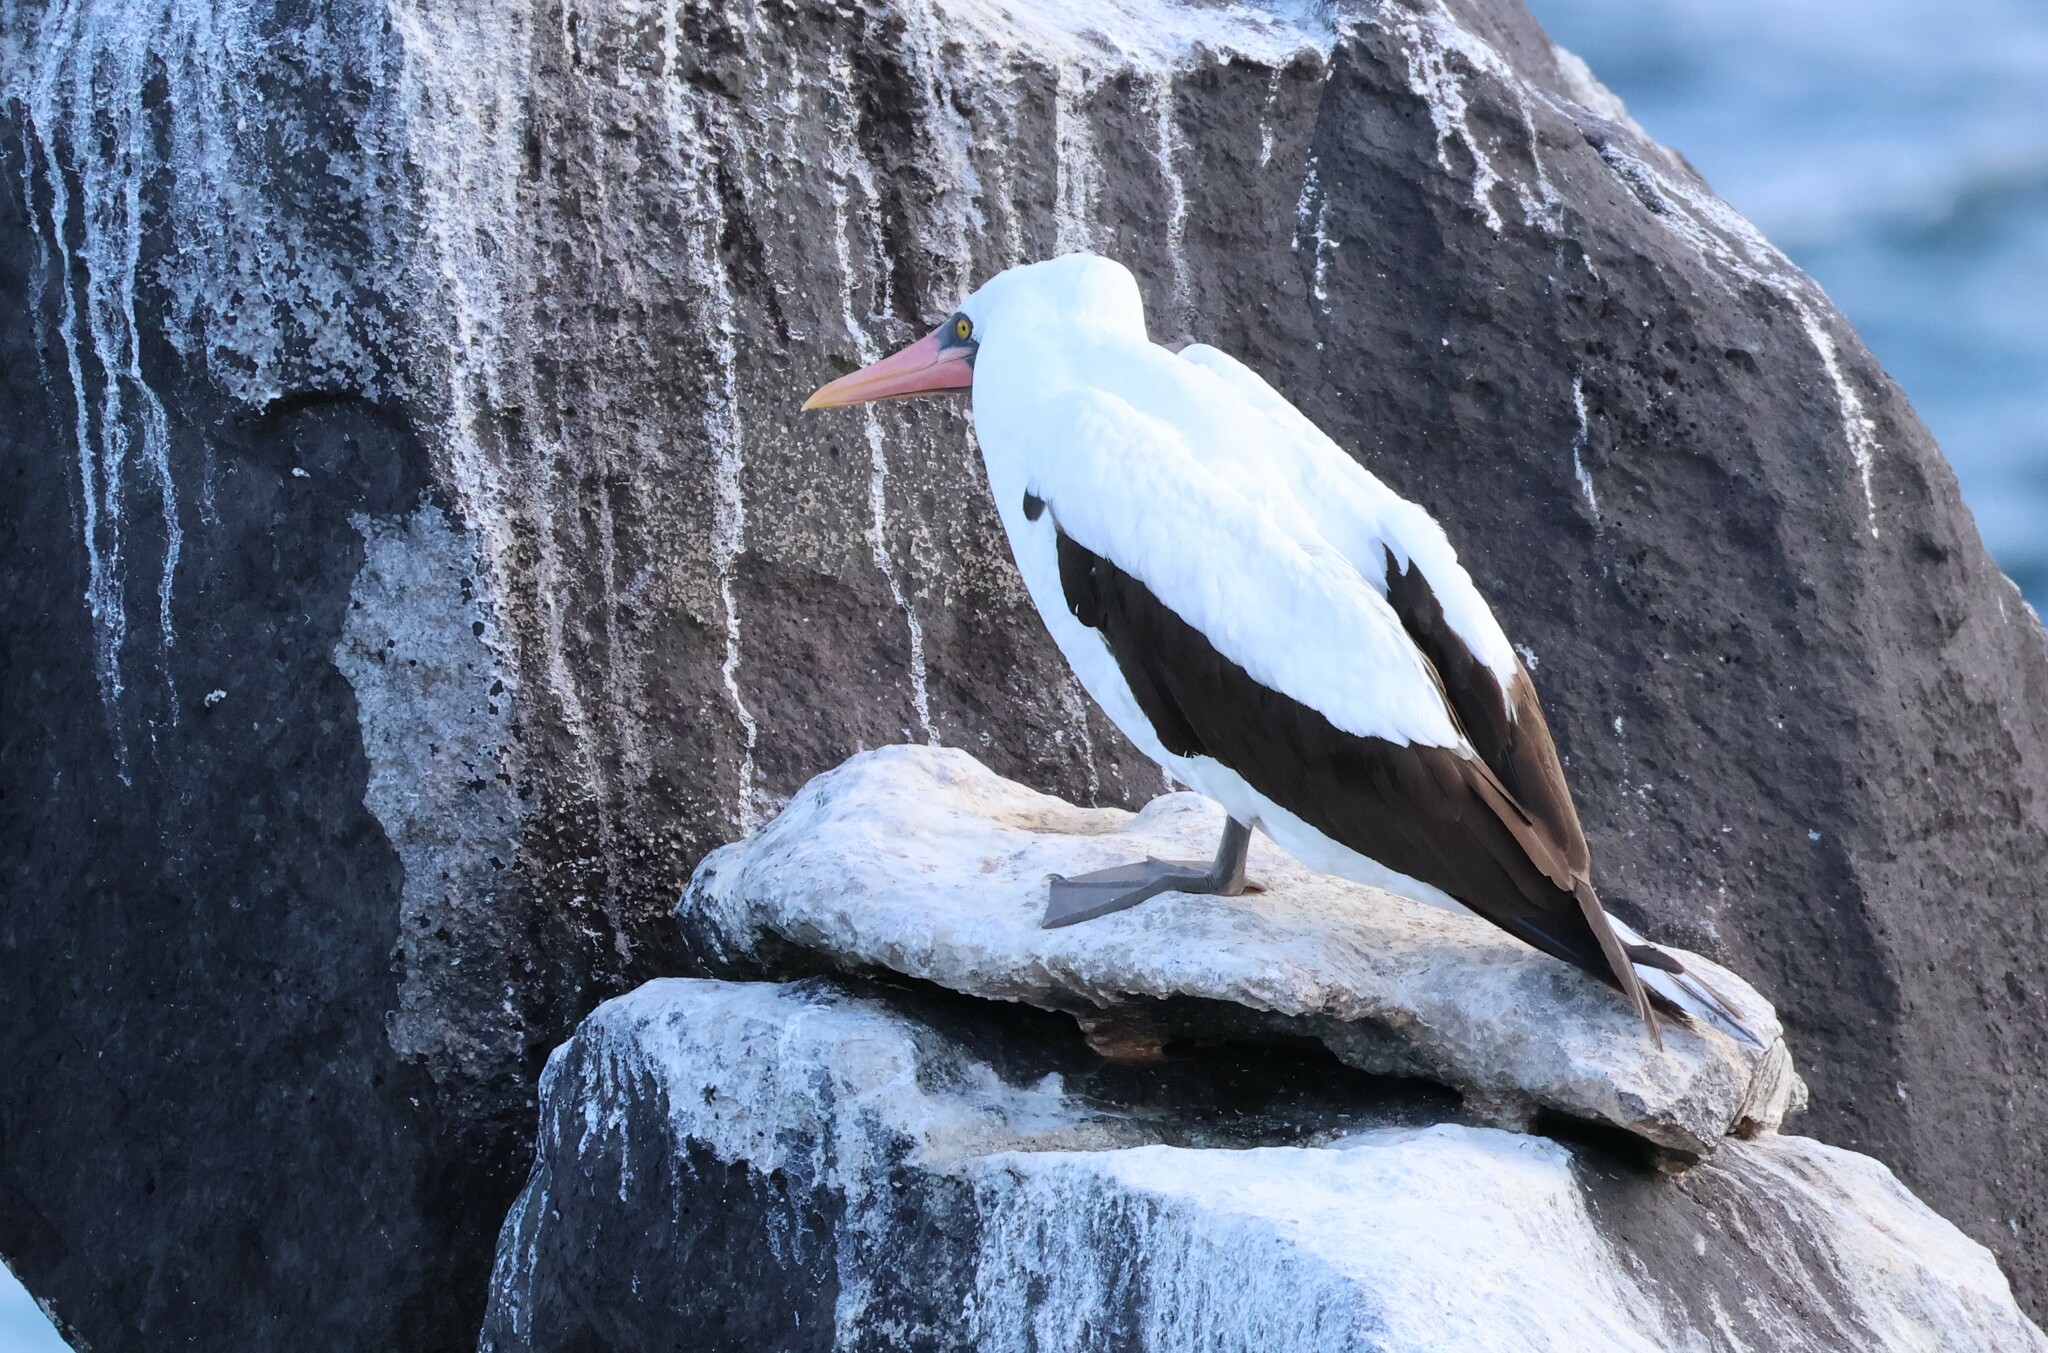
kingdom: Animalia
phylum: Chordata
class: Aves
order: Suliformes
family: Sulidae
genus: Sula
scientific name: Sula granti
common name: Nazca booby
